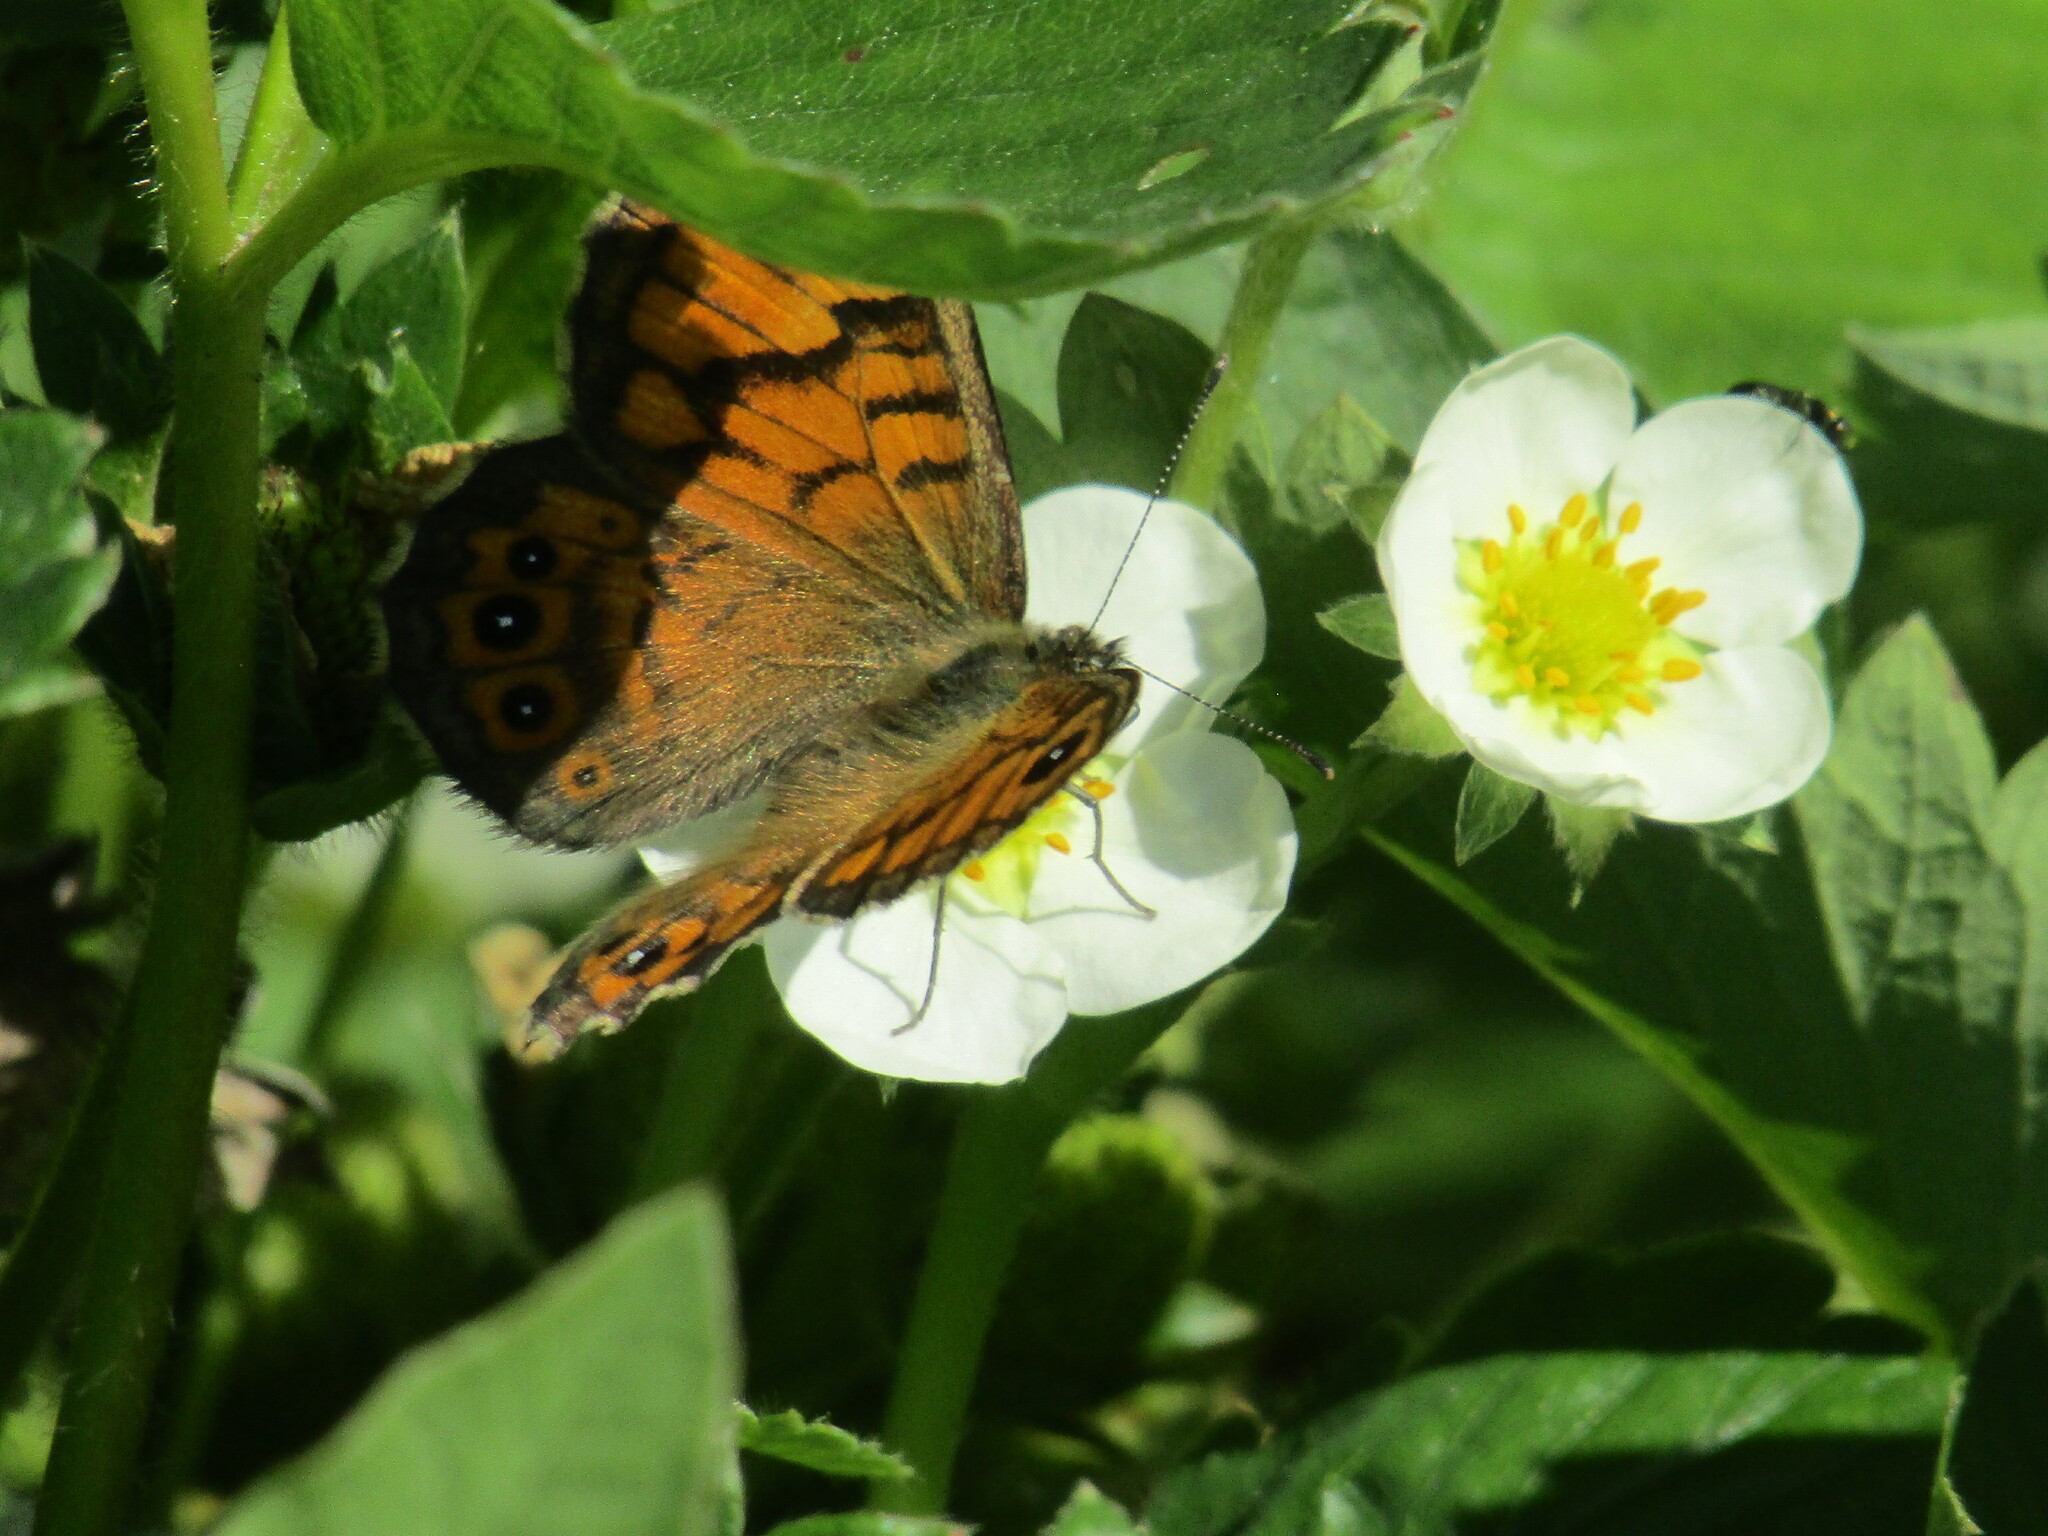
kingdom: Animalia
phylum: Arthropoda
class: Insecta
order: Lepidoptera
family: Nymphalidae
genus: Pararge
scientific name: Pararge Lasiommata megera
